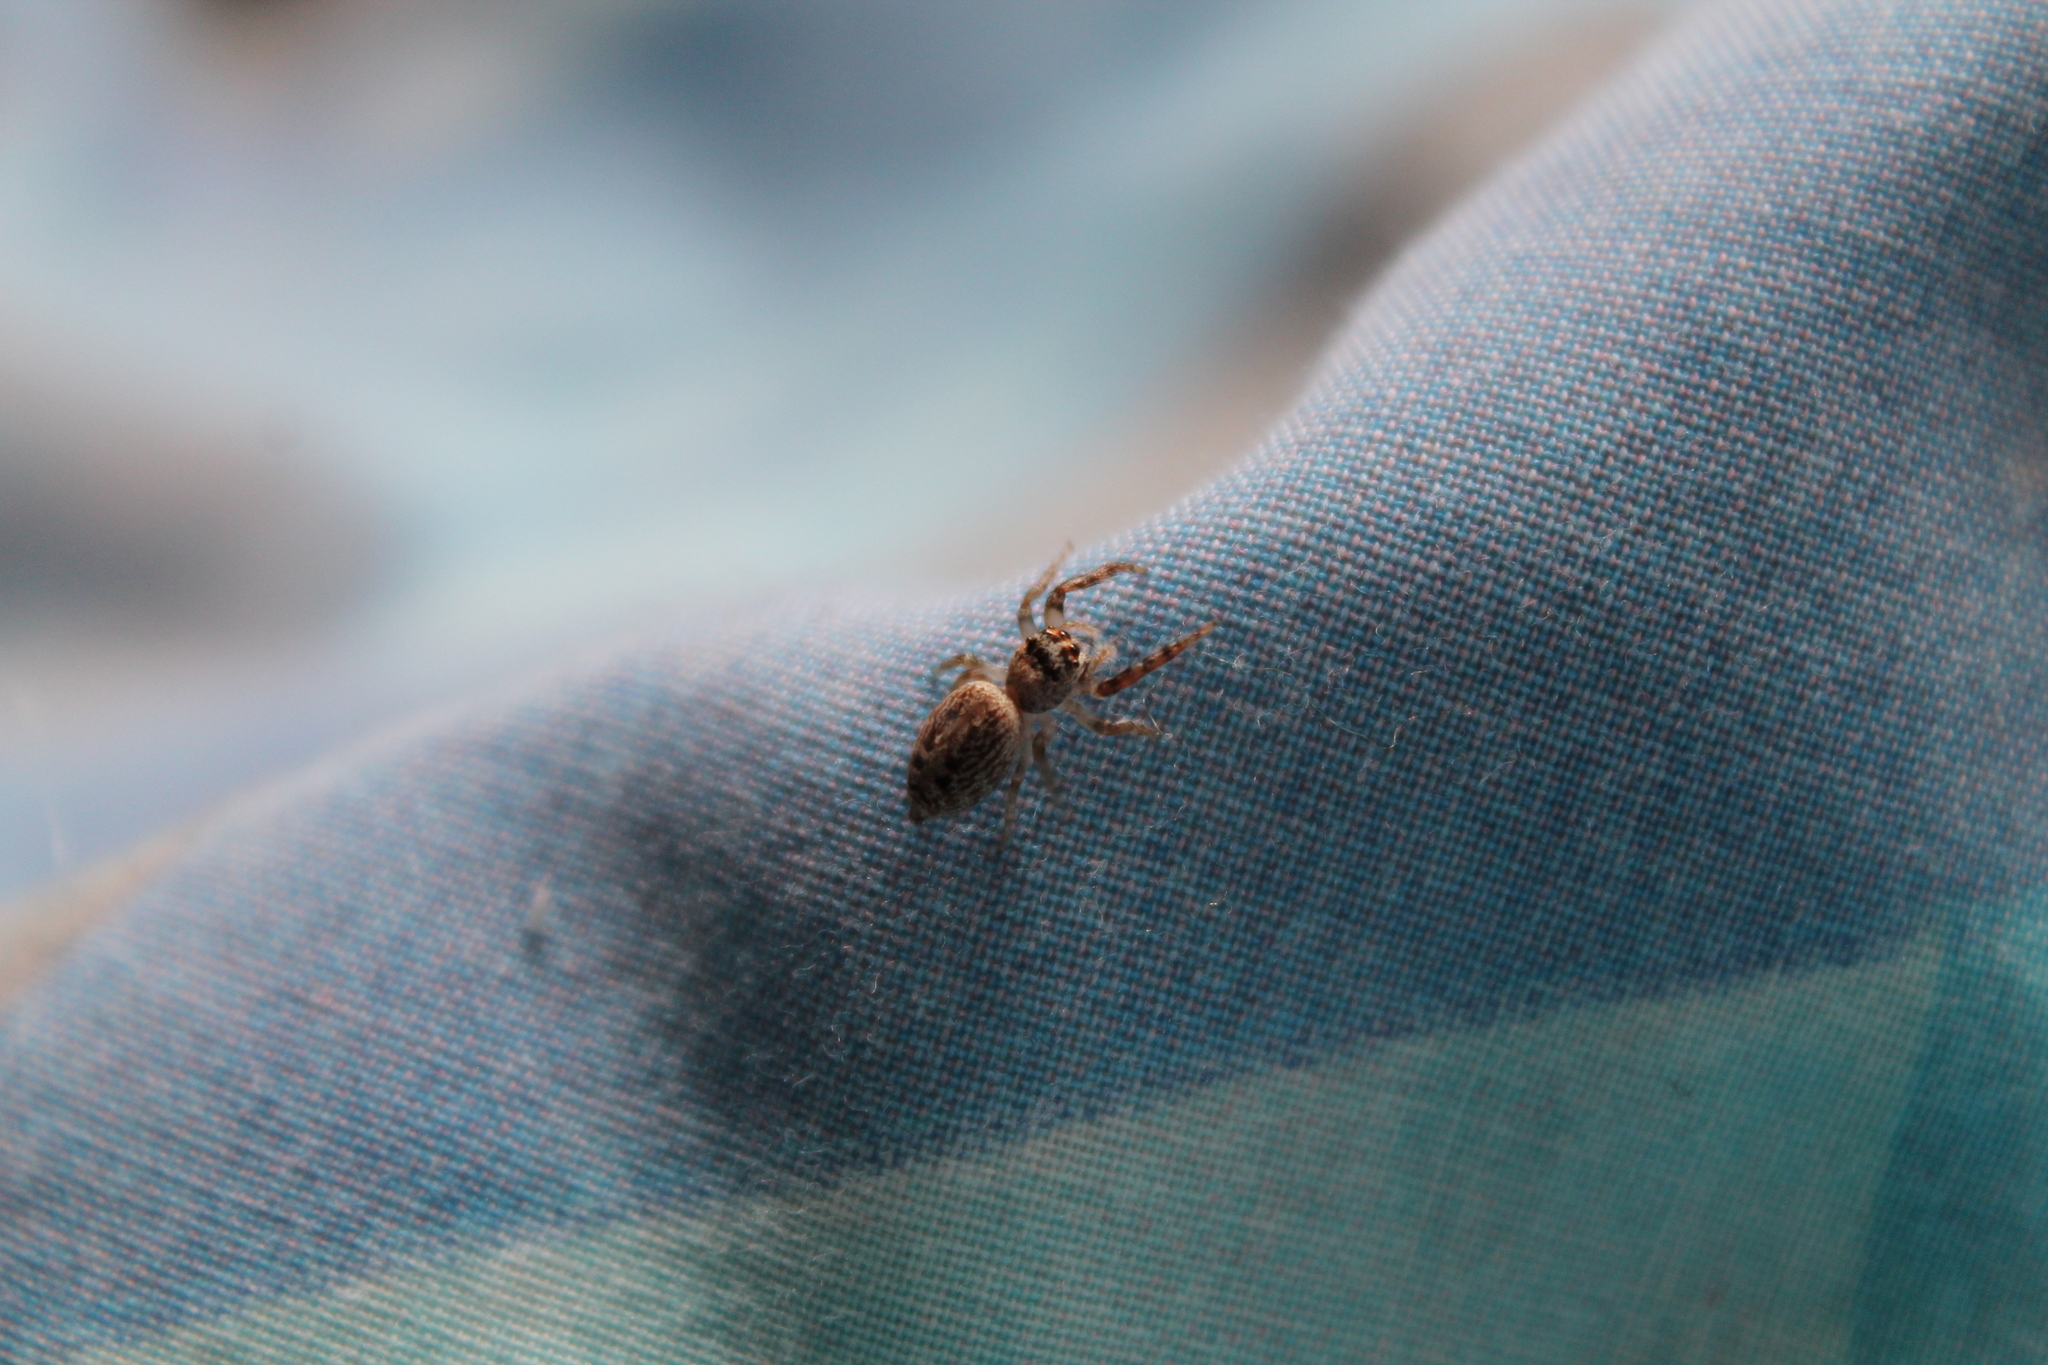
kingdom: Animalia
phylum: Arthropoda
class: Arachnida
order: Araneae
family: Salticidae
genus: Opisthoncus
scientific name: Opisthoncus polyphemus
